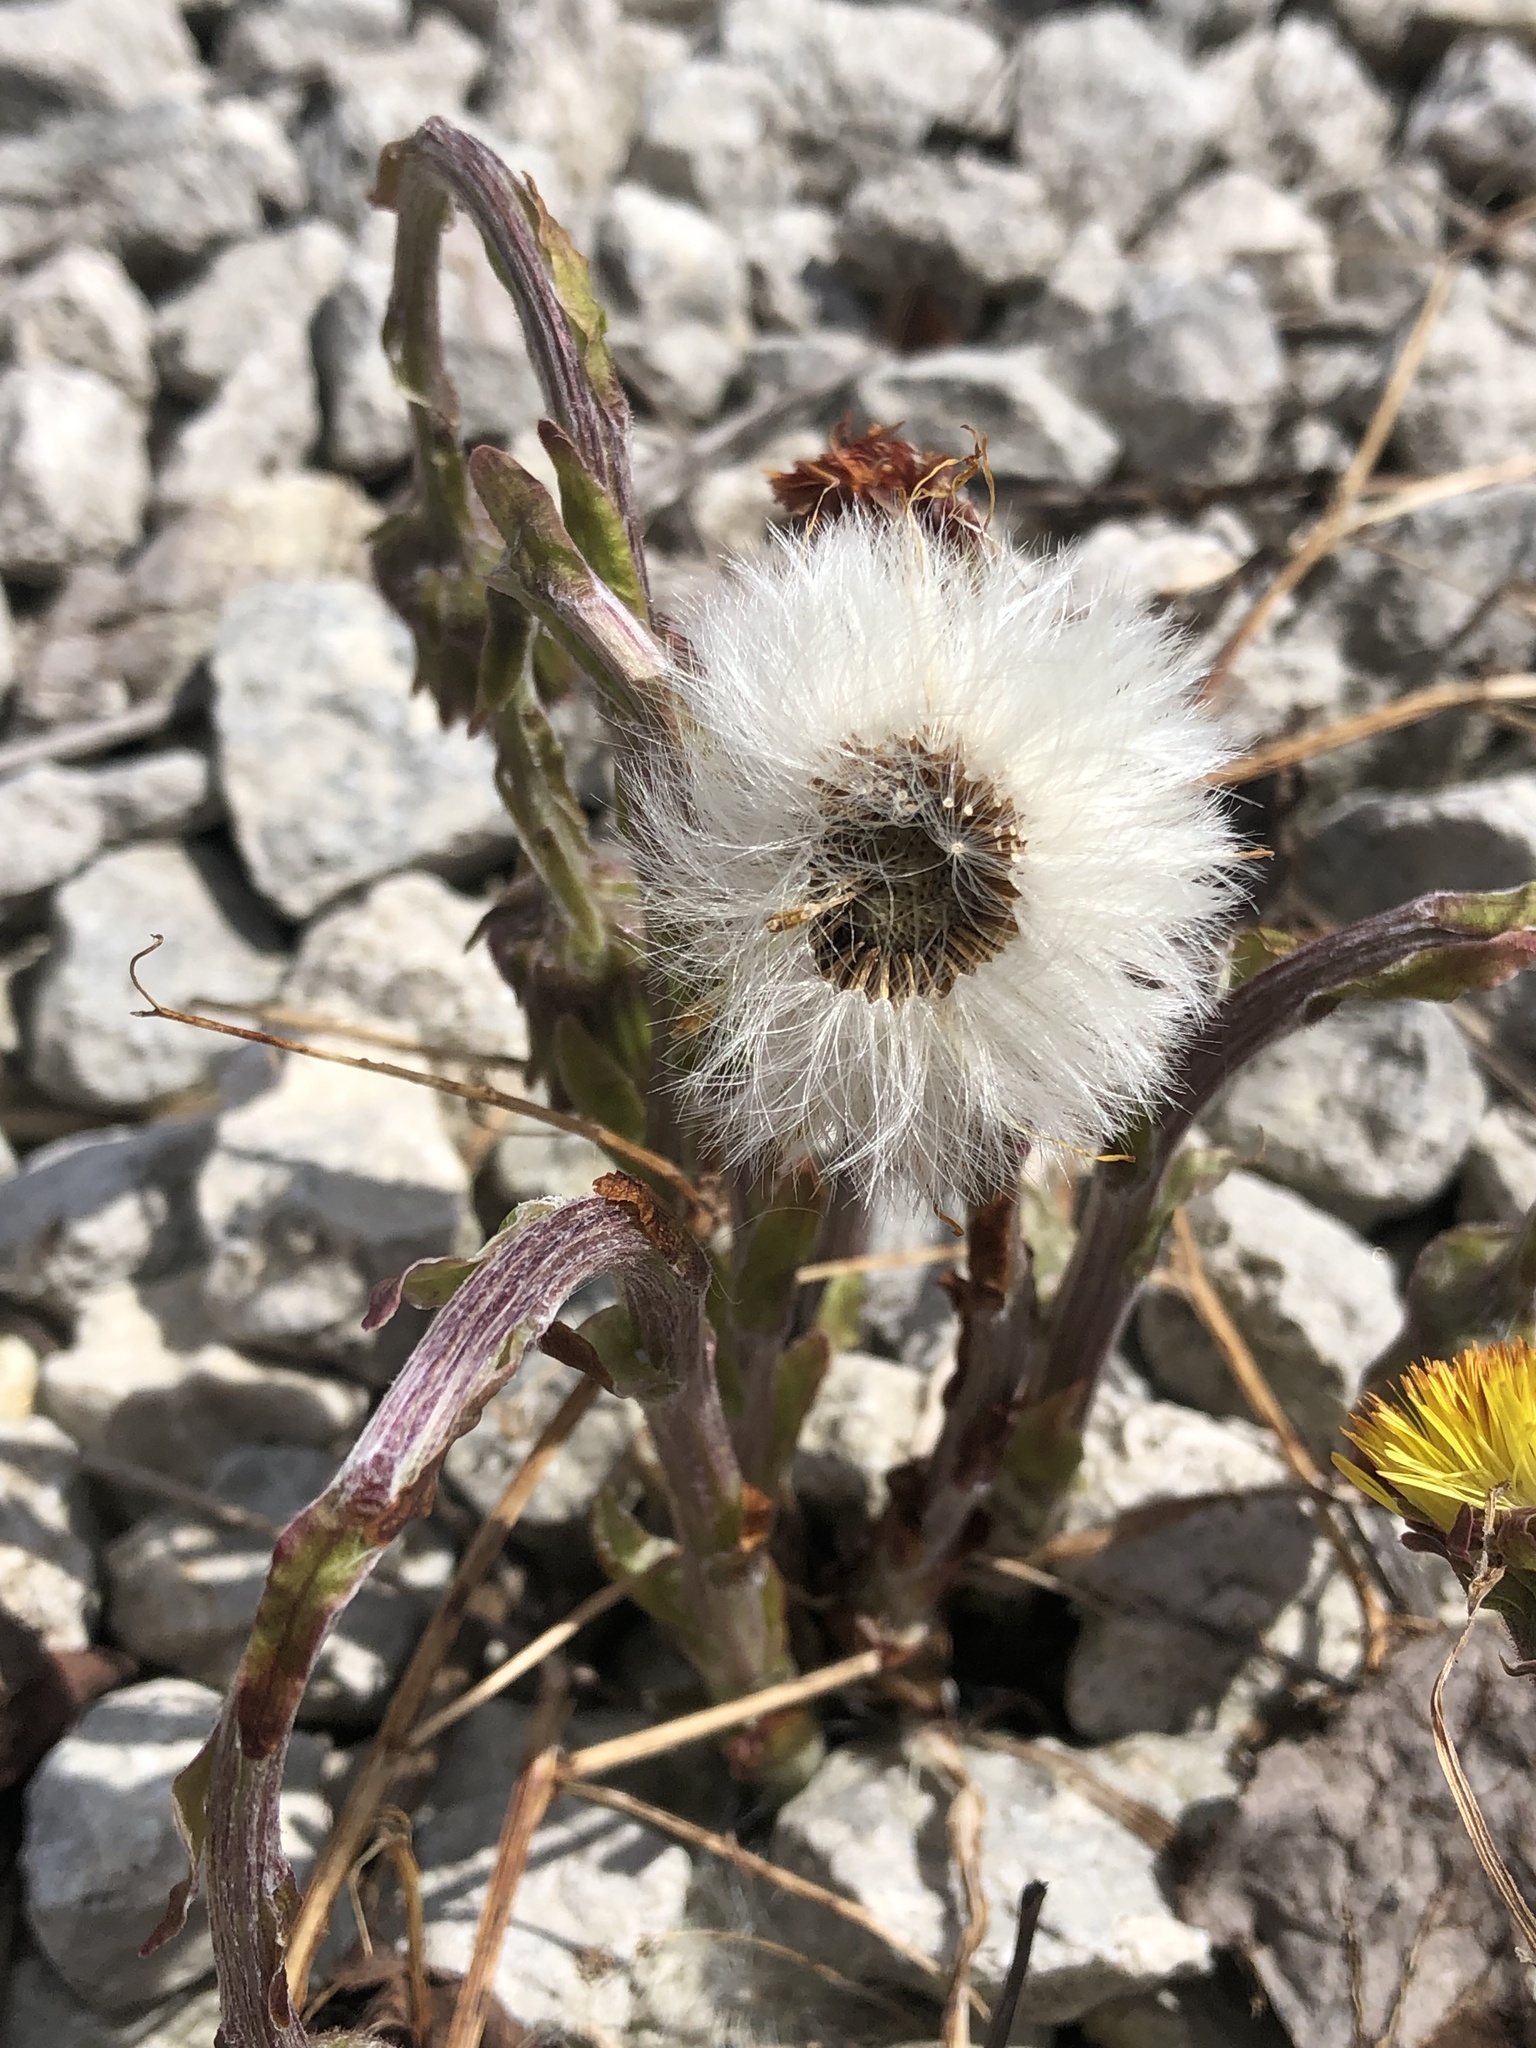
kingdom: Plantae
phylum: Tracheophyta
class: Magnoliopsida
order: Asterales
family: Asteraceae
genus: Tussilago
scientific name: Tussilago farfara
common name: Coltsfoot
